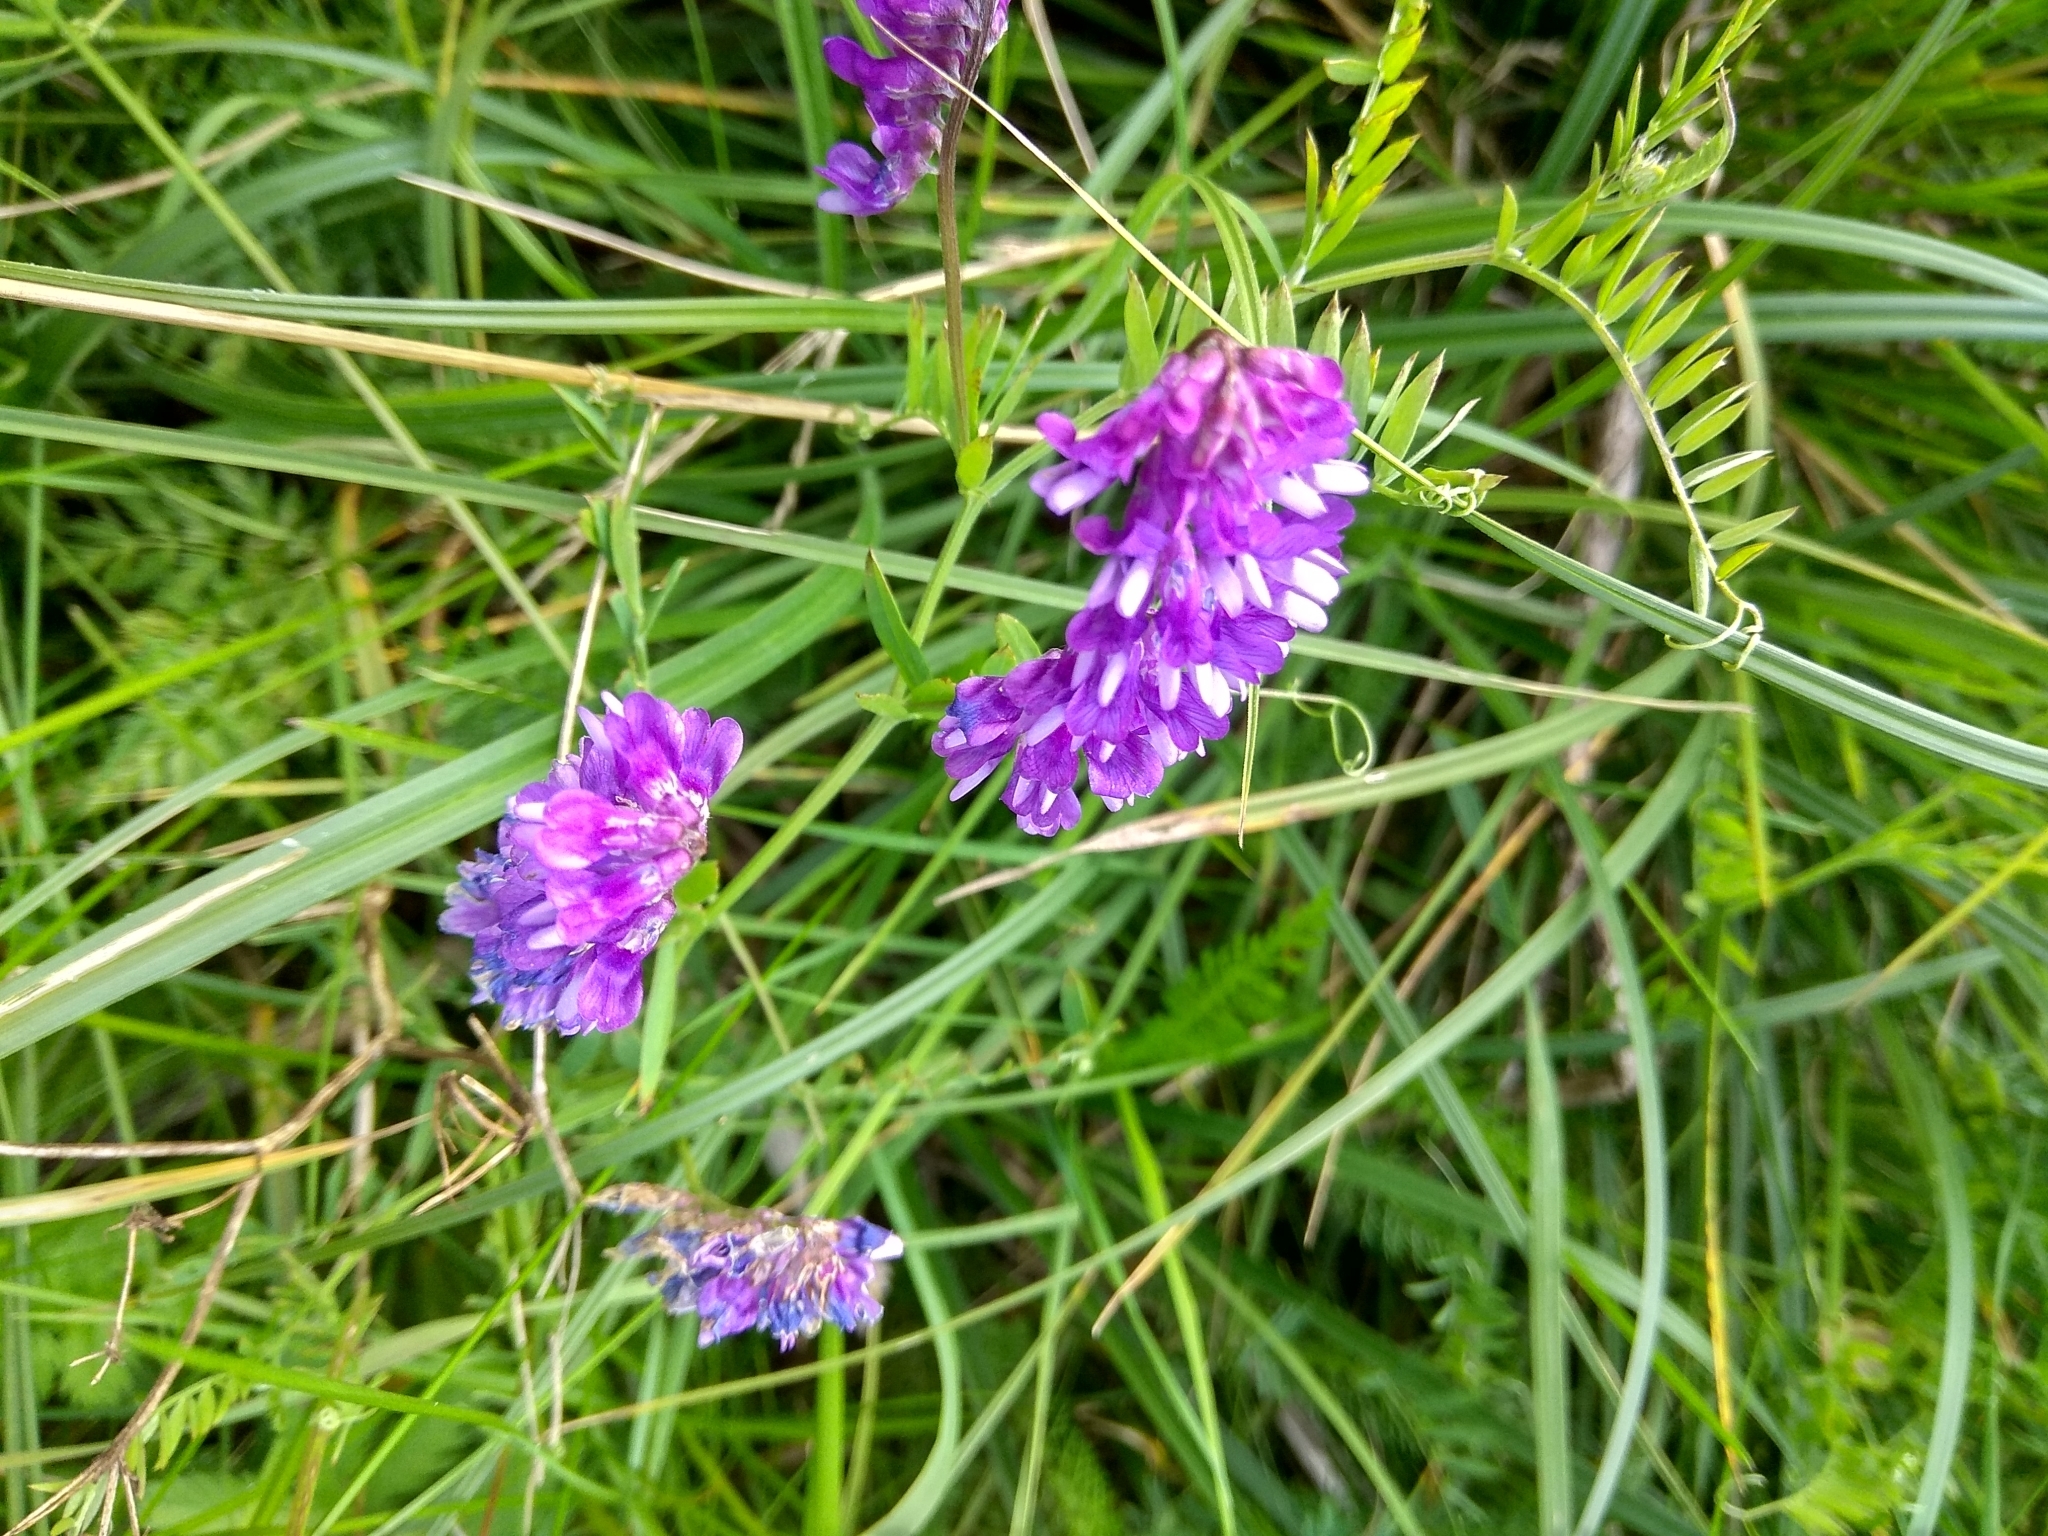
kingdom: Plantae
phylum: Tracheophyta
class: Magnoliopsida
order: Fabales
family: Fabaceae
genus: Vicia
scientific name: Vicia cracca
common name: Bird vetch
